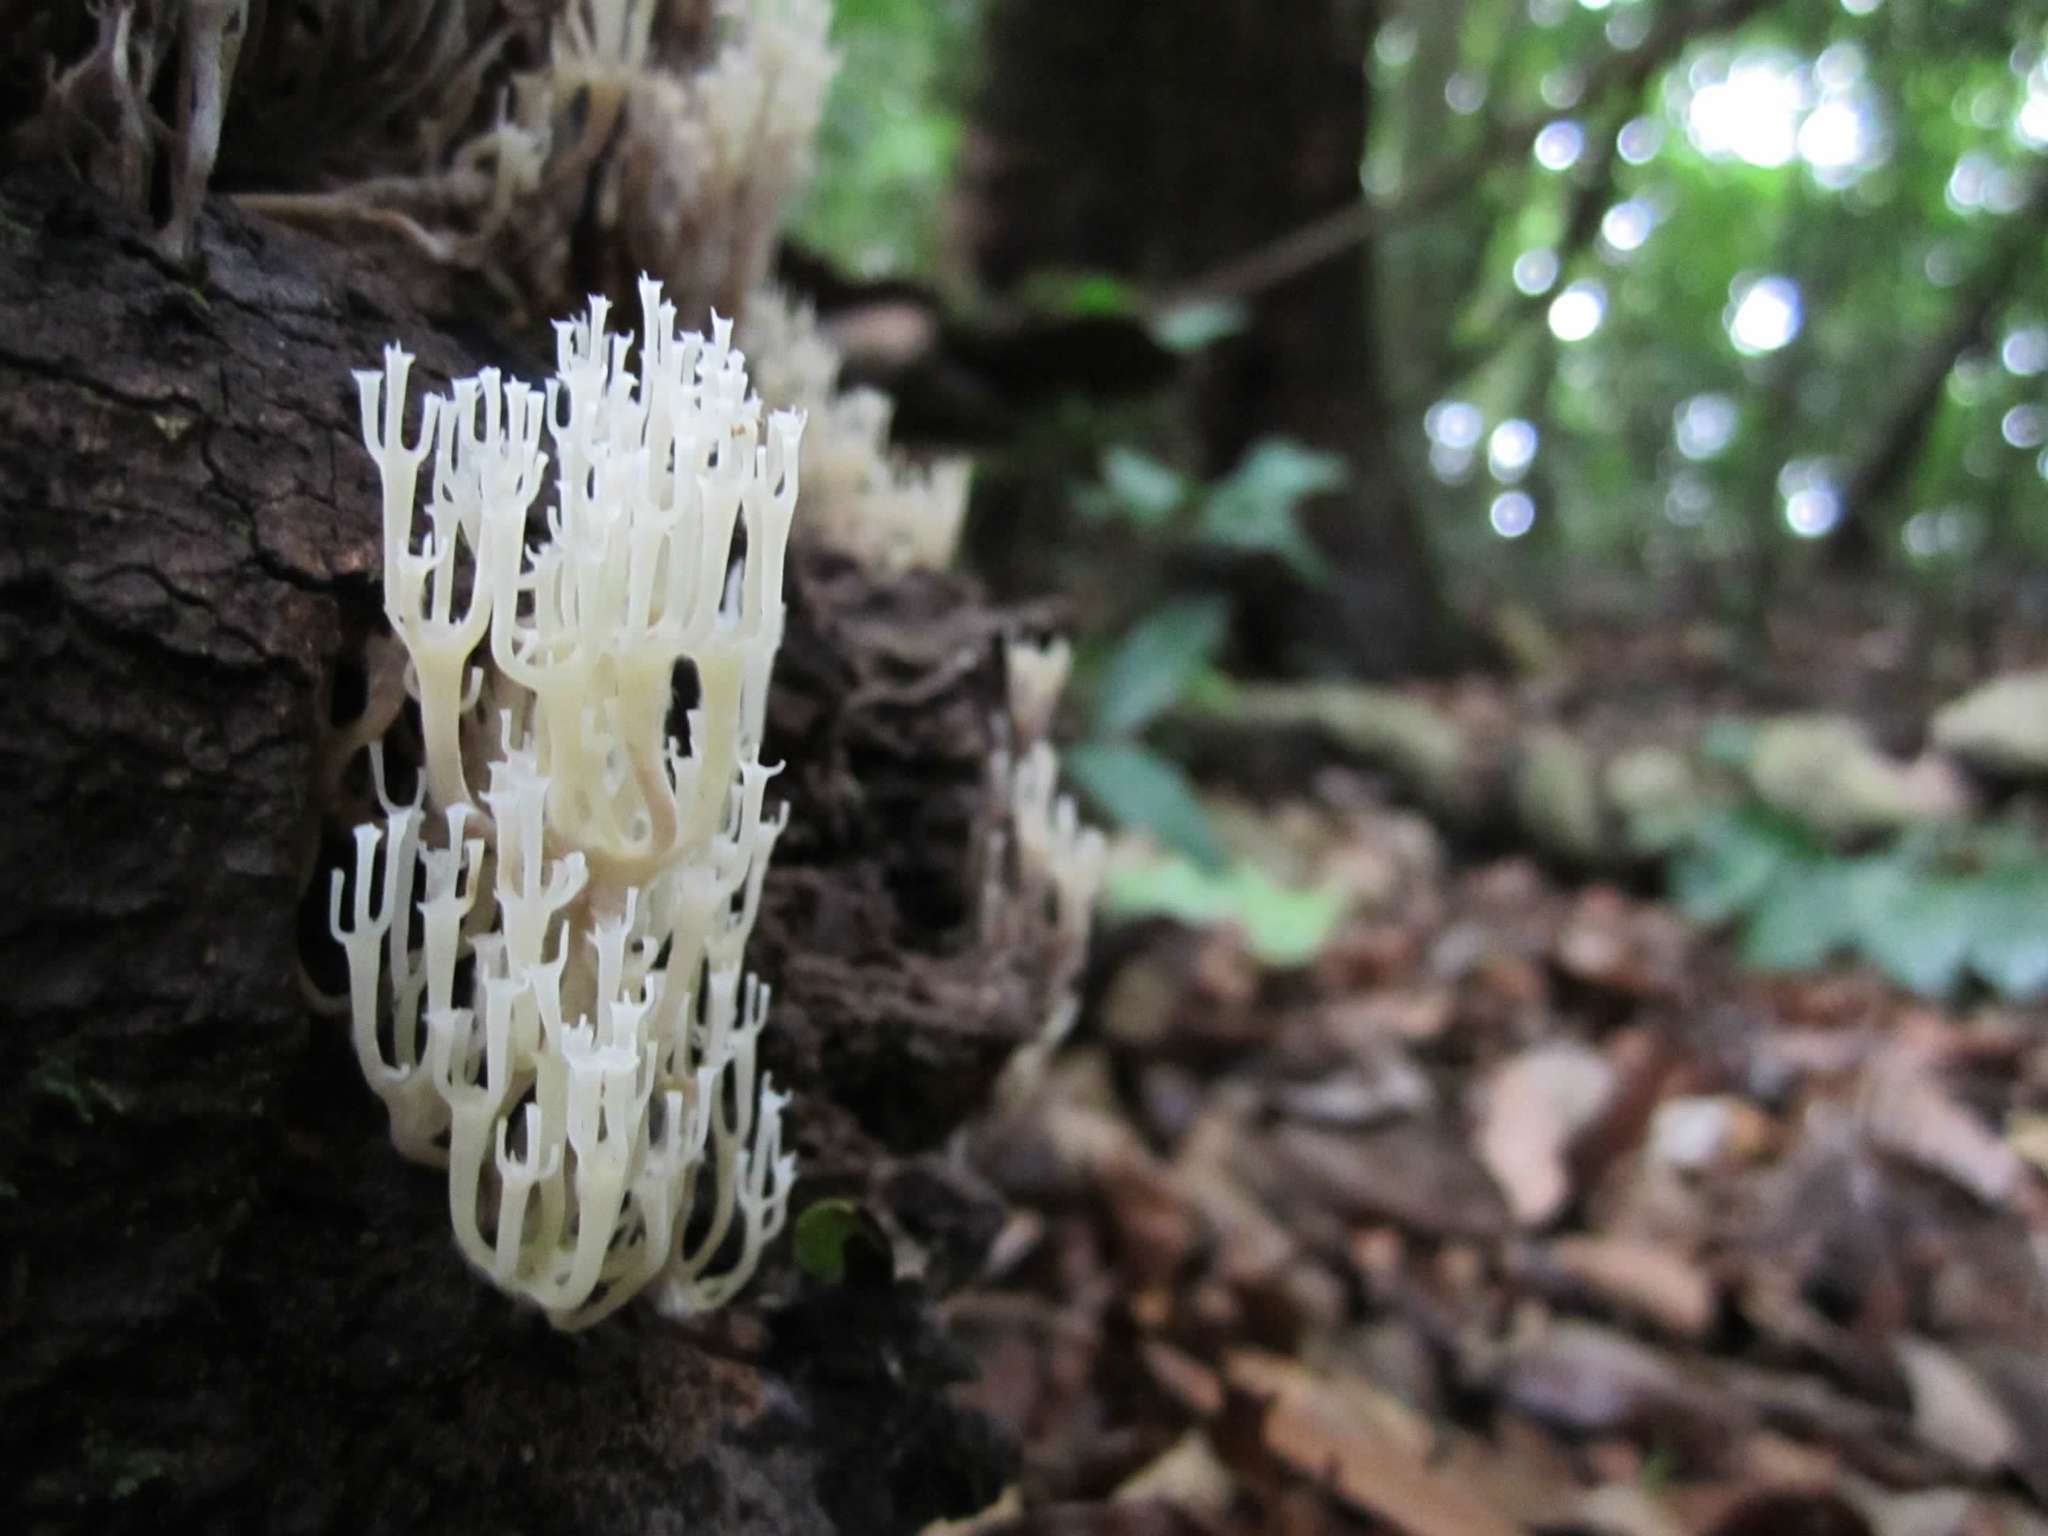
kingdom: Fungi
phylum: Basidiomycota
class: Agaricomycetes
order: Russulales
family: Auriscalpiaceae
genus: Artomyces
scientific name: Artomyces pyxidatus
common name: Crown-tipped coral fungus
